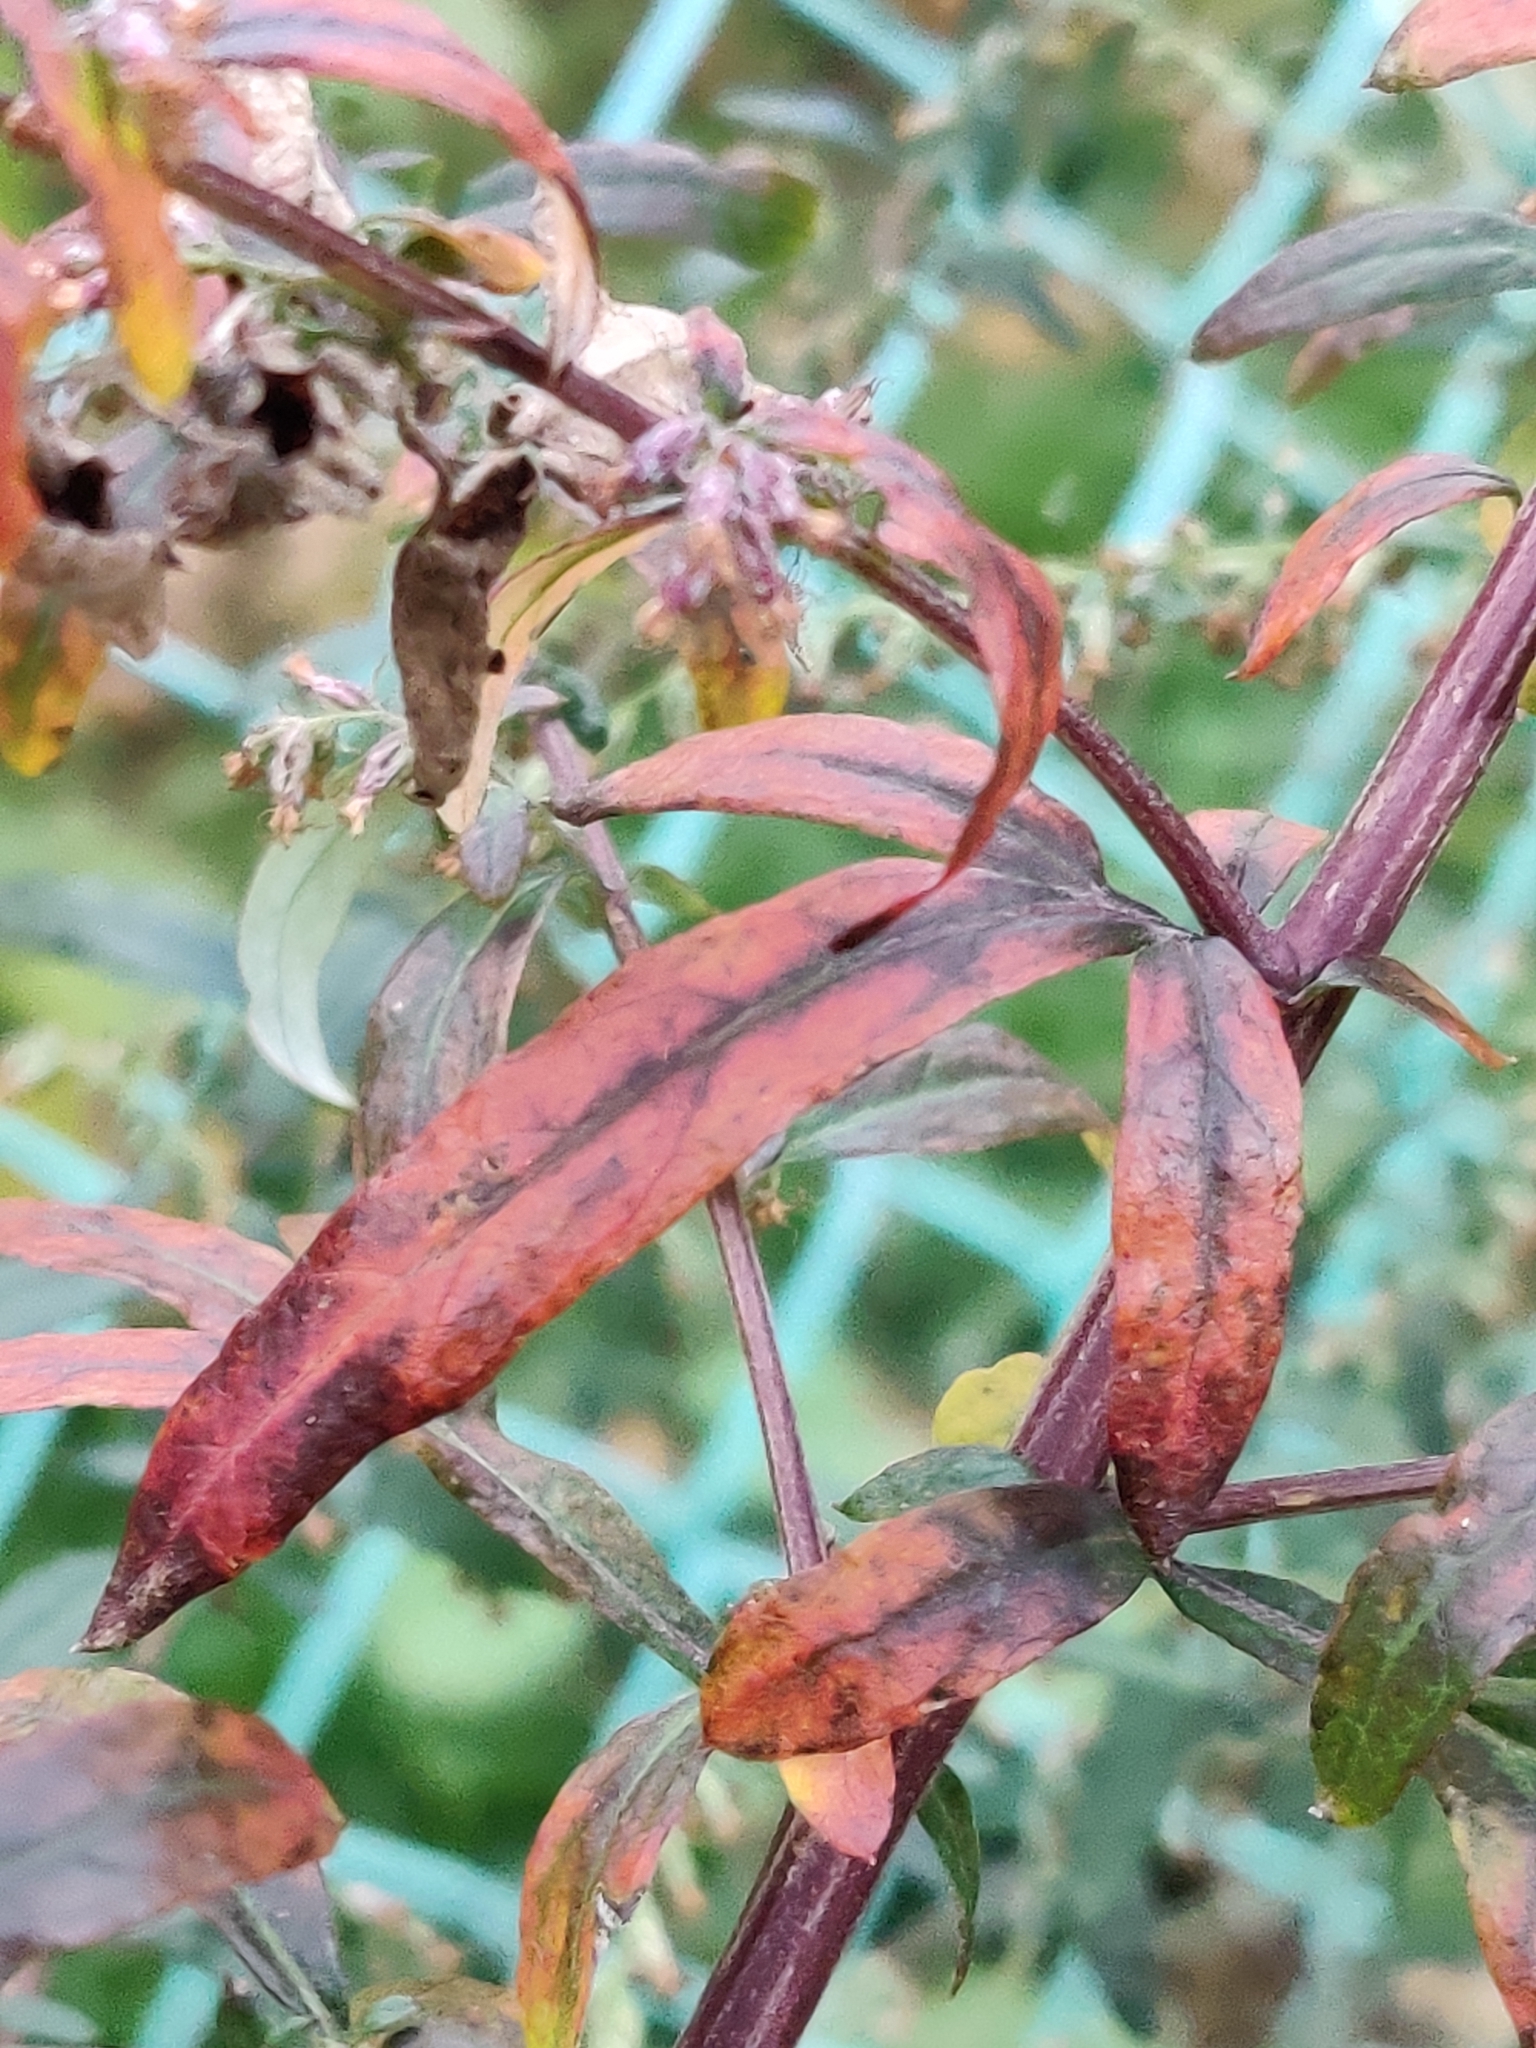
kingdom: Plantae
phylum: Tracheophyta
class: Magnoliopsida
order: Asterales
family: Asteraceae
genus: Artemisia
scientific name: Artemisia vulgaris
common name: Mugwort
